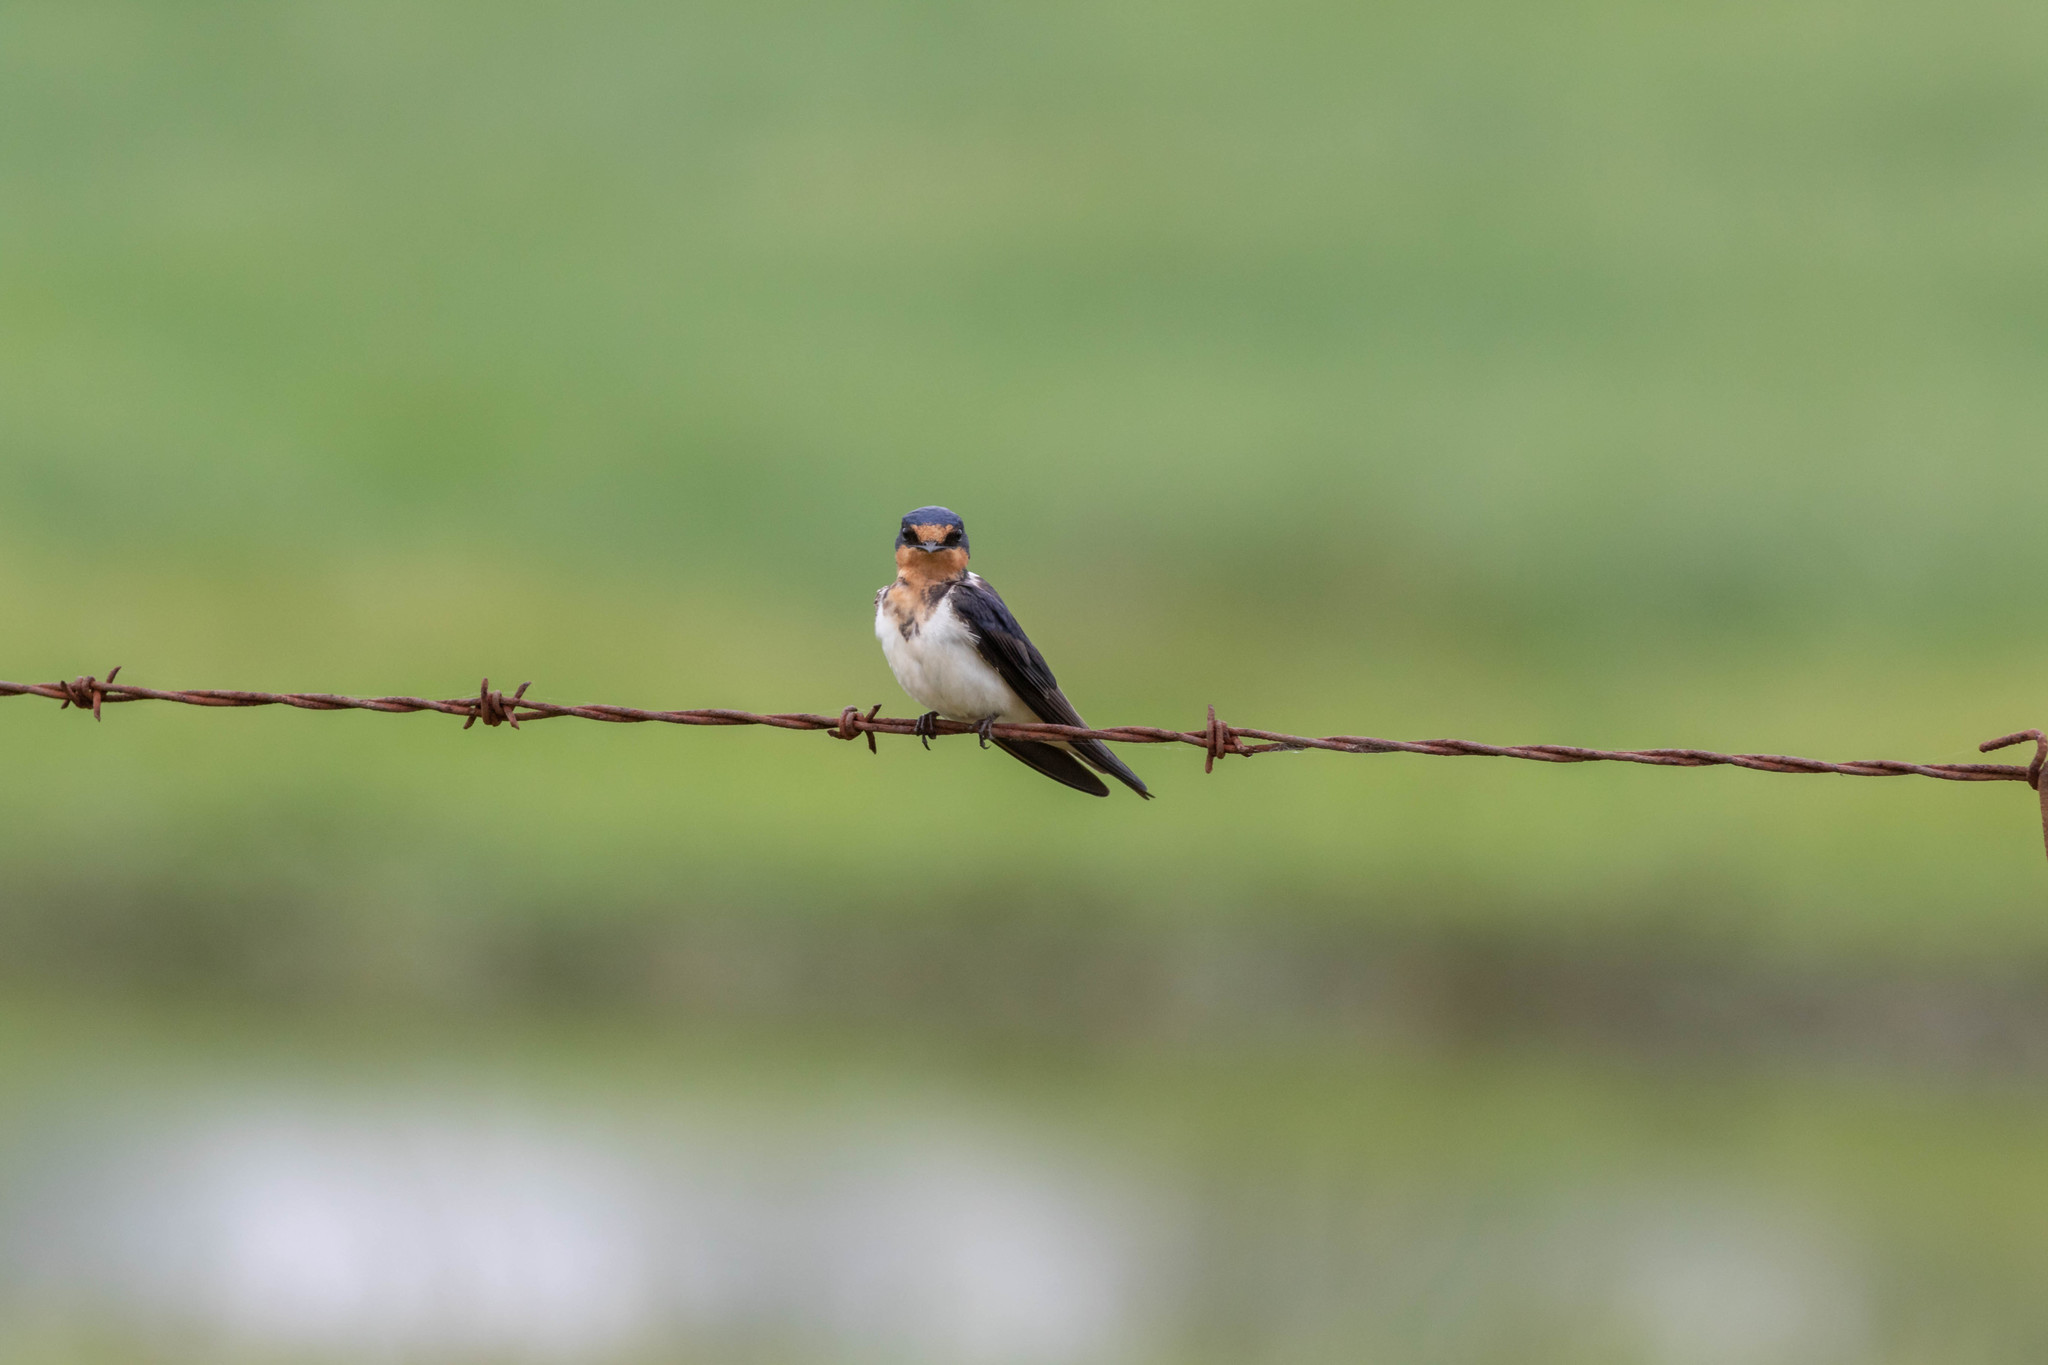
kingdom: Animalia
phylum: Chordata
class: Aves
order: Passeriformes
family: Hirundinidae
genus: Hirundo
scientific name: Hirundo rustica
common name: Barn swallow
